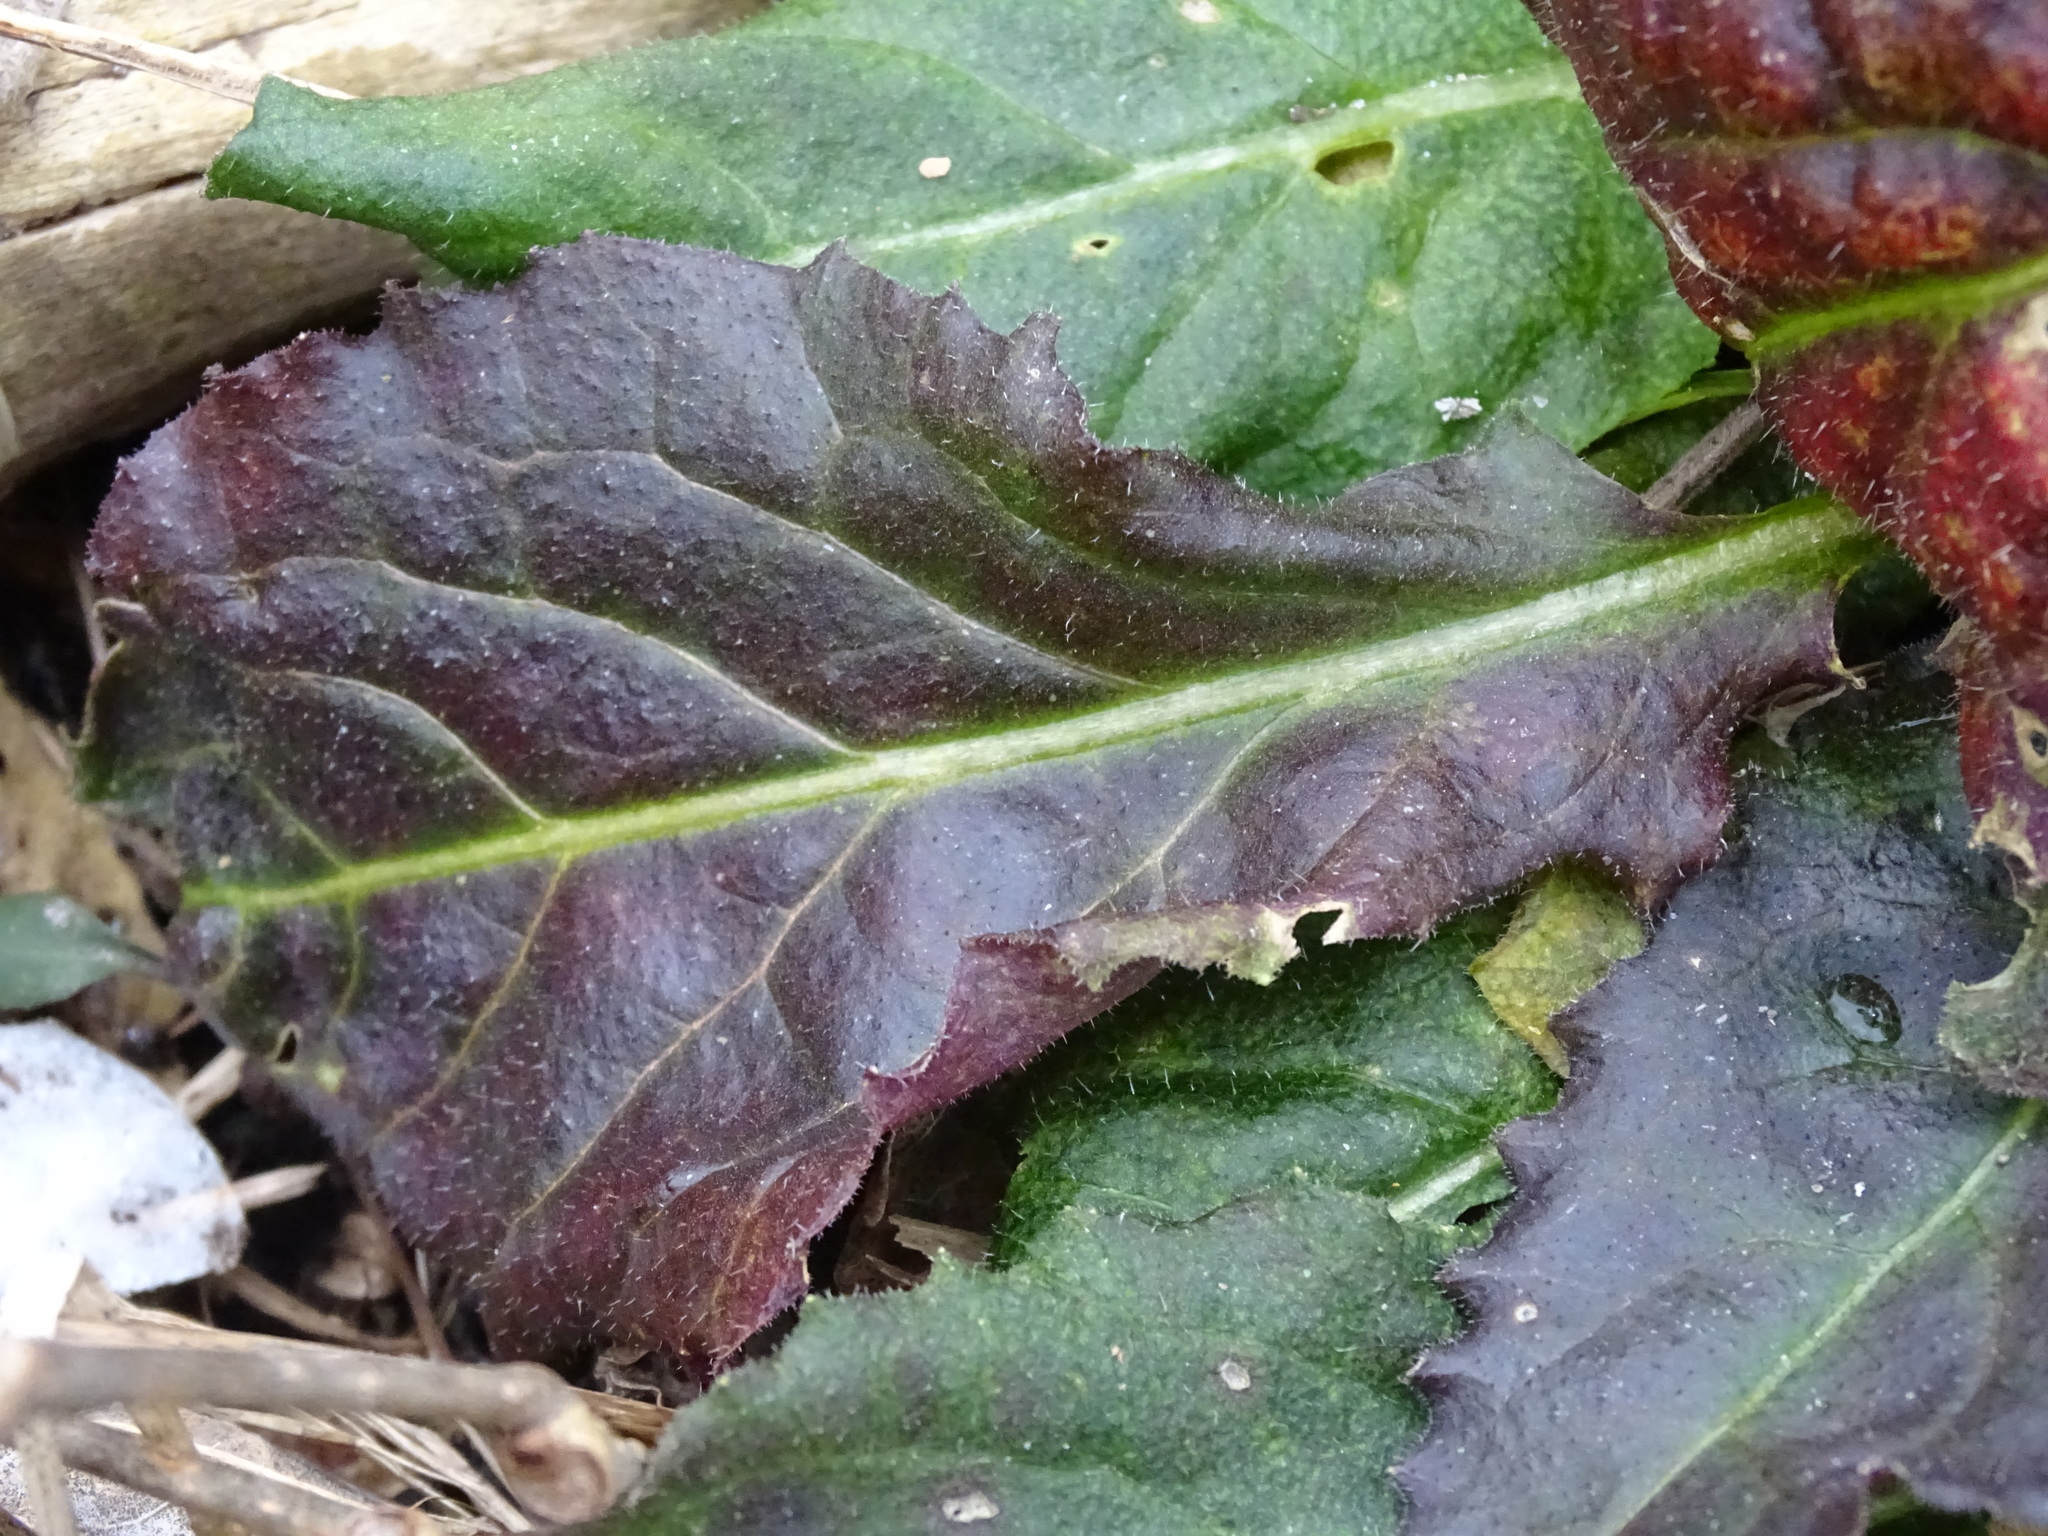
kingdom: Plantae
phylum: Tracheophyta
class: Magnoliopsida
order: Brassicales
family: Brassicaceae
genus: Hesperis
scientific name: Hesperis matronalis
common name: Dame's-violet
